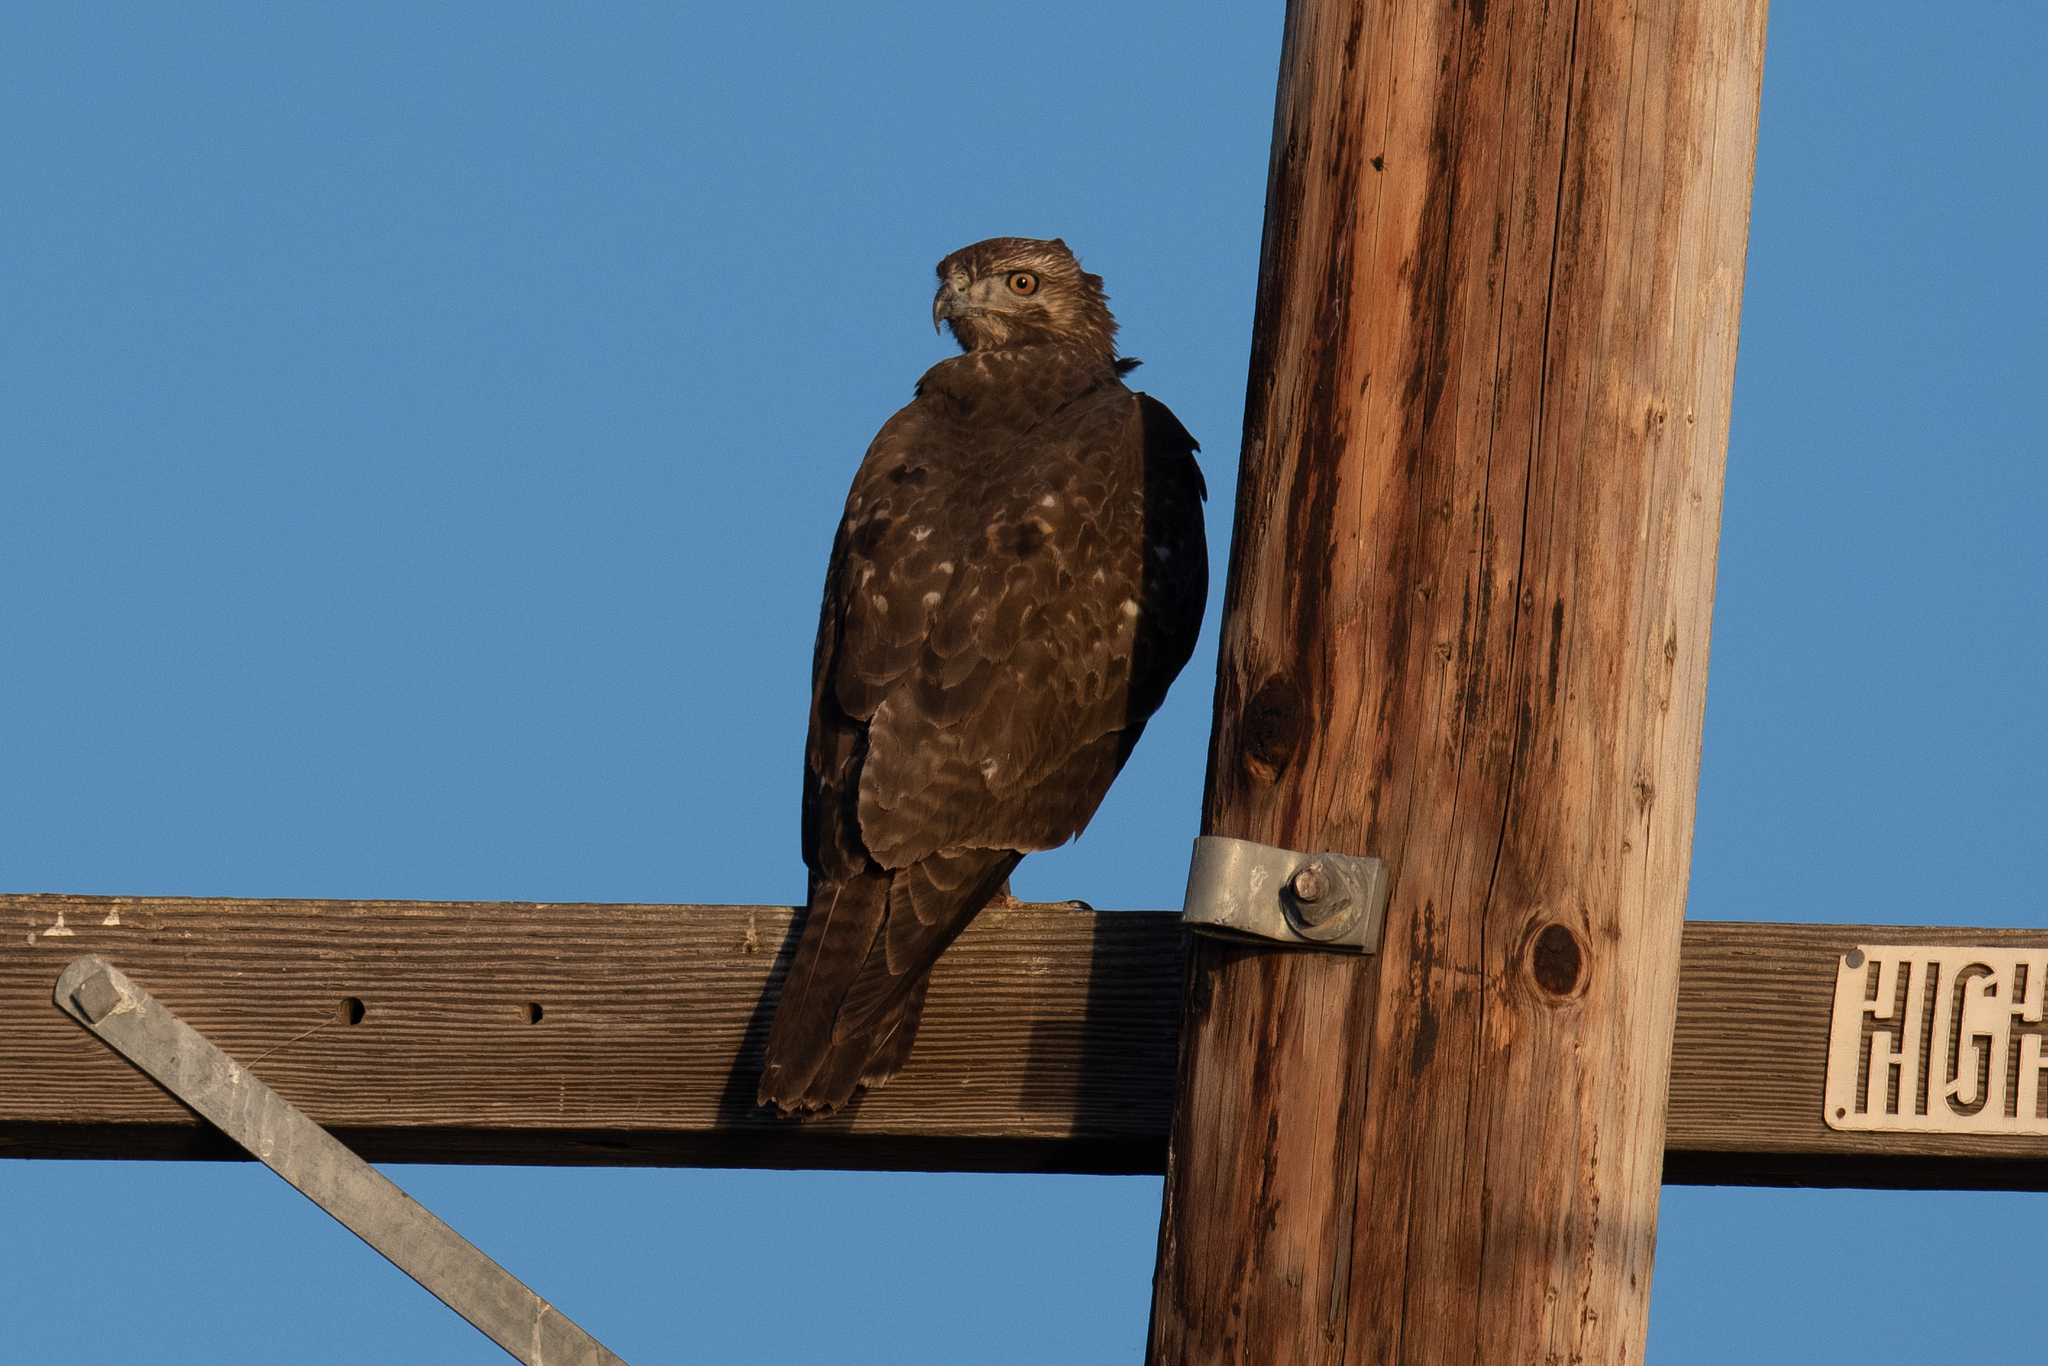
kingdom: Animalia
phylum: Chordata
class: Aves
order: Accipitriformes
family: Accipitridae
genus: Buteo
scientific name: Buteo jamaicensis
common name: Red-tailed hawk
